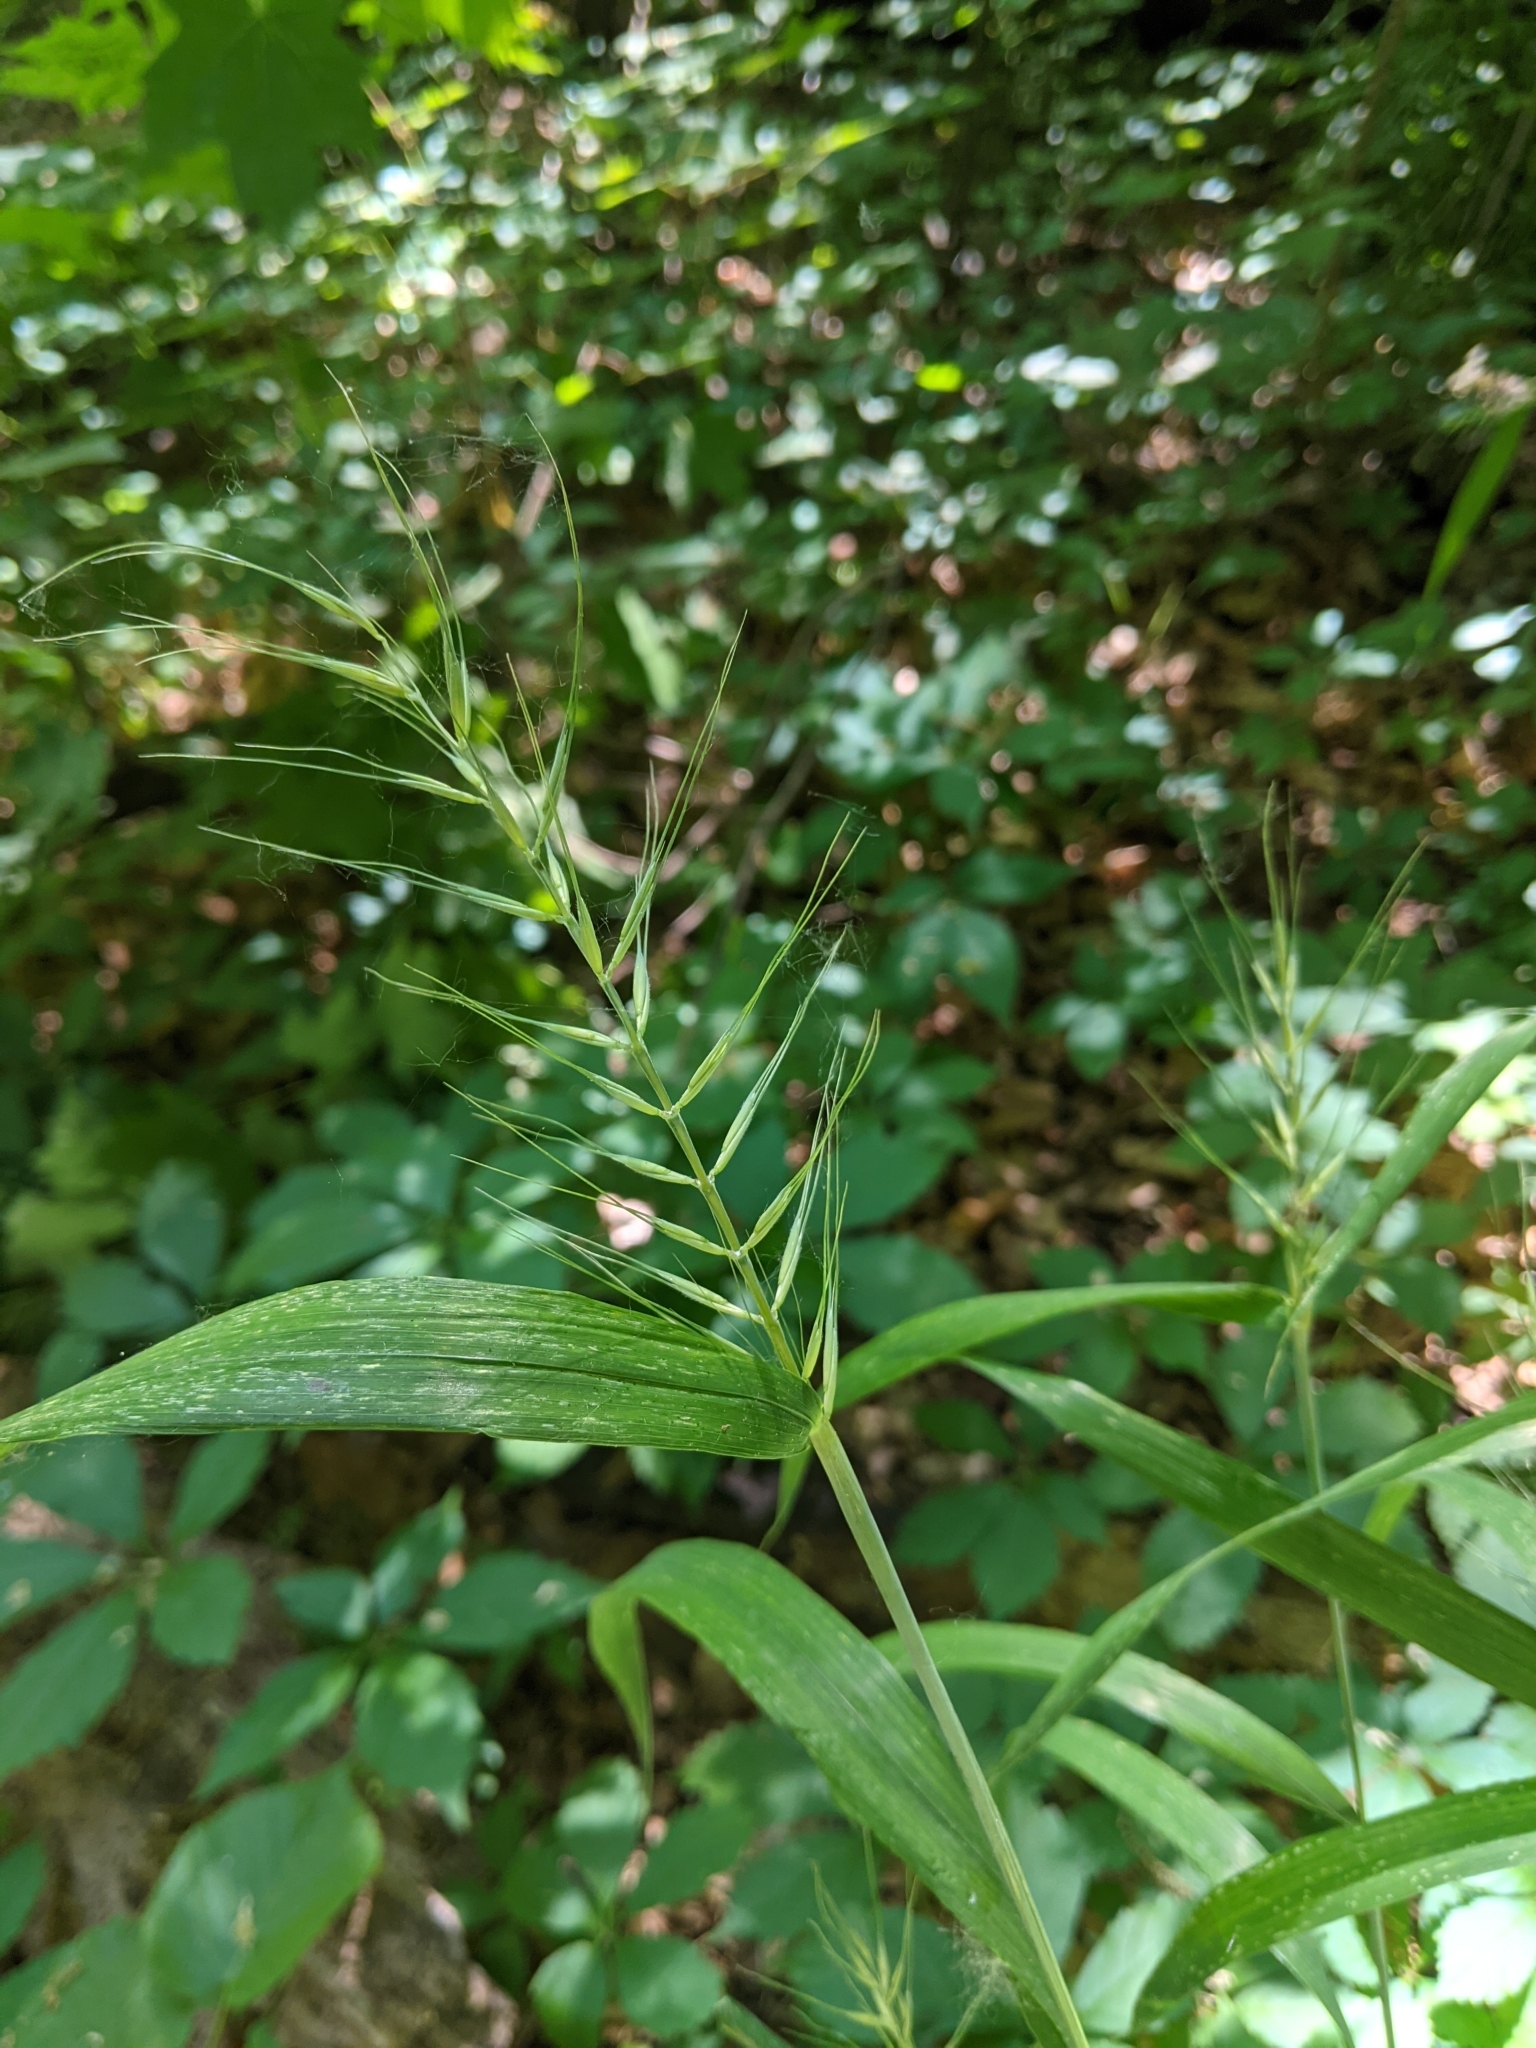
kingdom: Plantae
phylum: Tracheophyta
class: Liliopsida
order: Poales
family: Poaceae
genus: Elymus
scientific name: Elymus hystrix
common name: Bottlebrush grass
